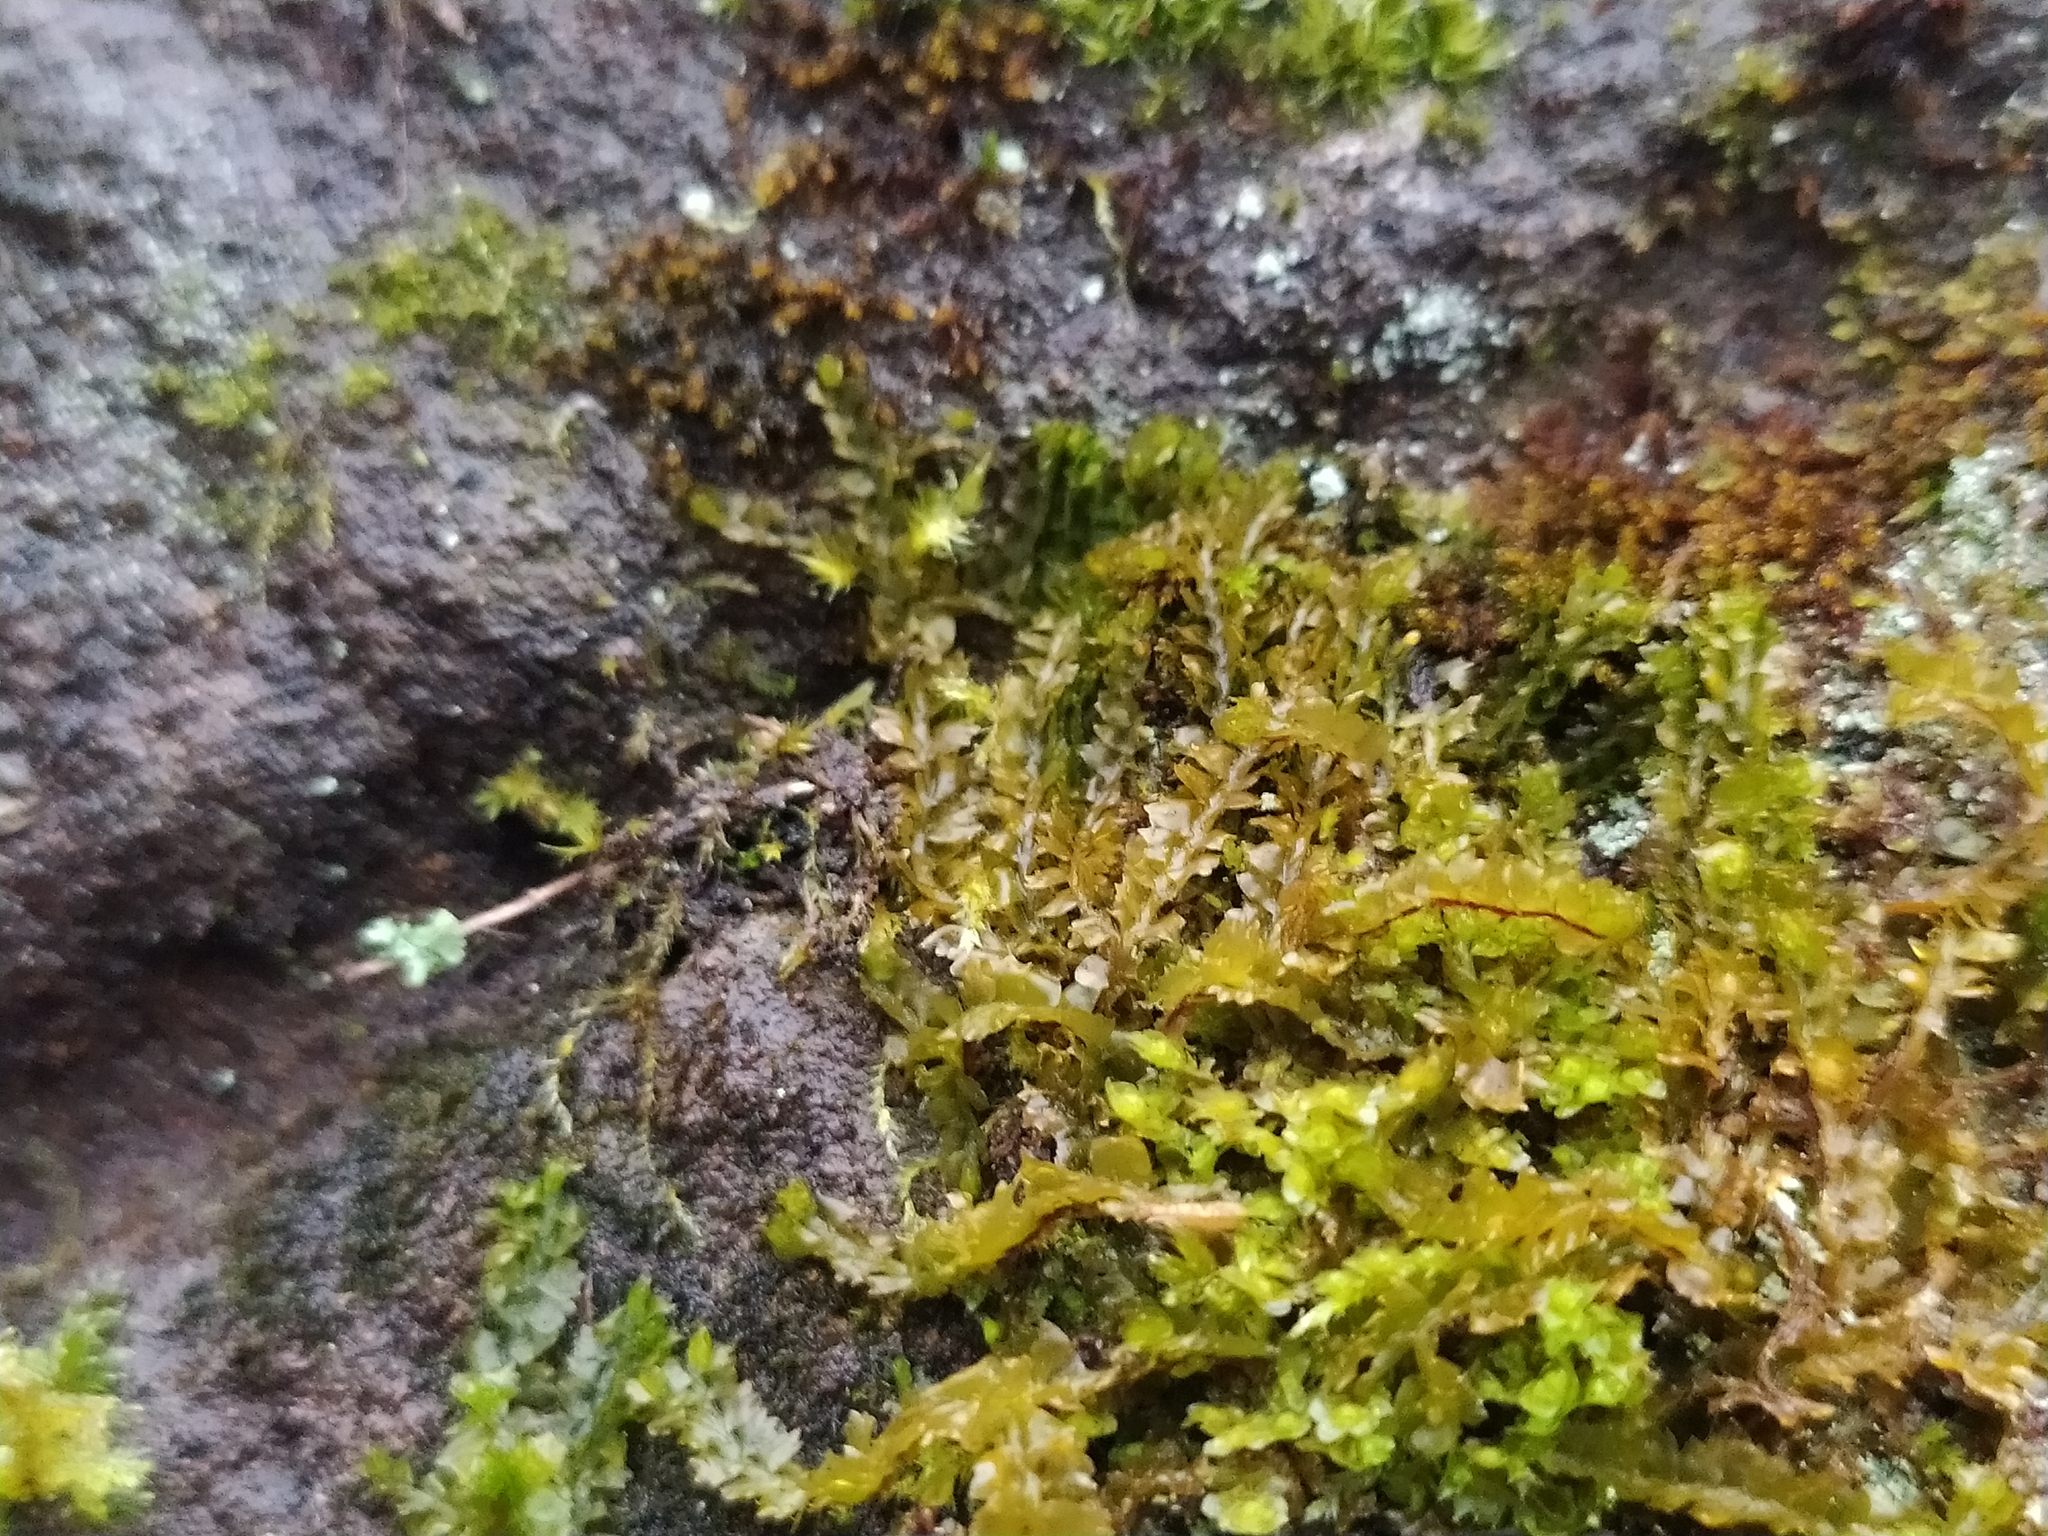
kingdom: Plantae
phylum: Marchantiophyta
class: Jungermanniopsida
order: Jungermanniales
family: Anastrophyllaceae
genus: Barbilophozia
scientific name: Barbilophozia barbata
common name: Bearded pawwort
